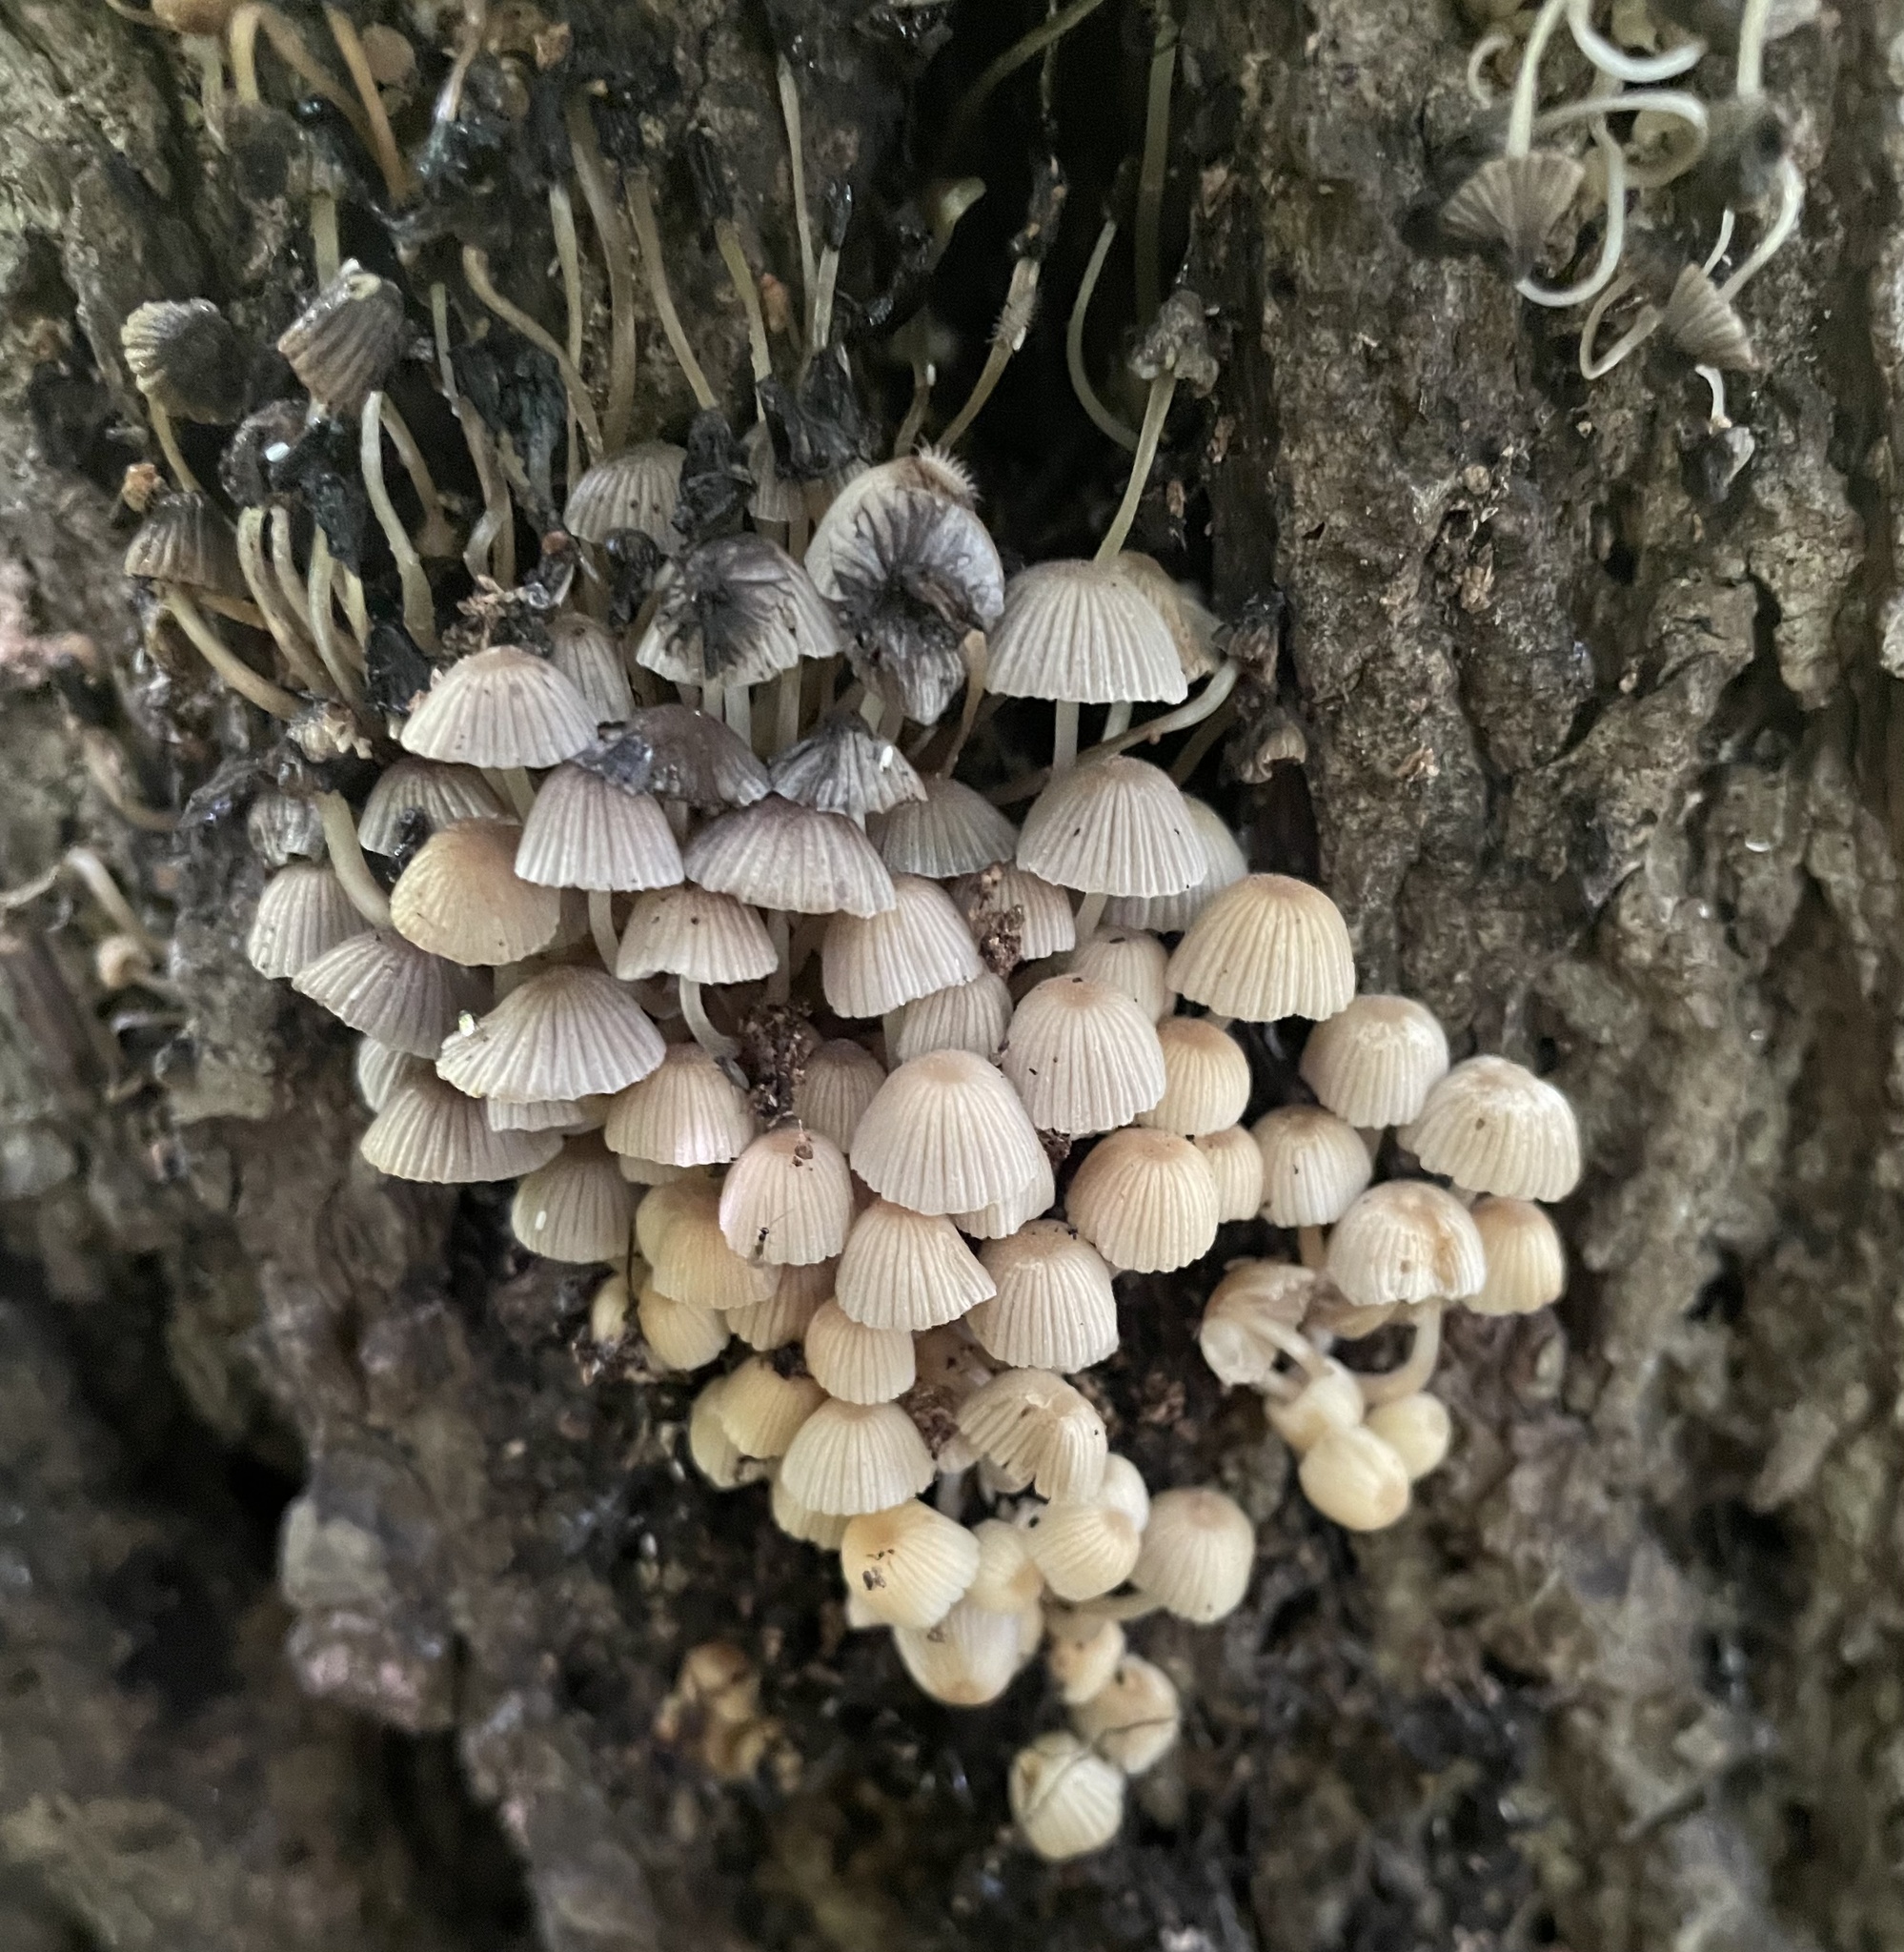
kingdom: Fungi
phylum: Basidiomycota
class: Agaricomycetes
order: Agaricales
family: Psathyrellaceae
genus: Coprinellus
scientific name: Coprinellus disseminatus
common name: Fairies' bonnets
